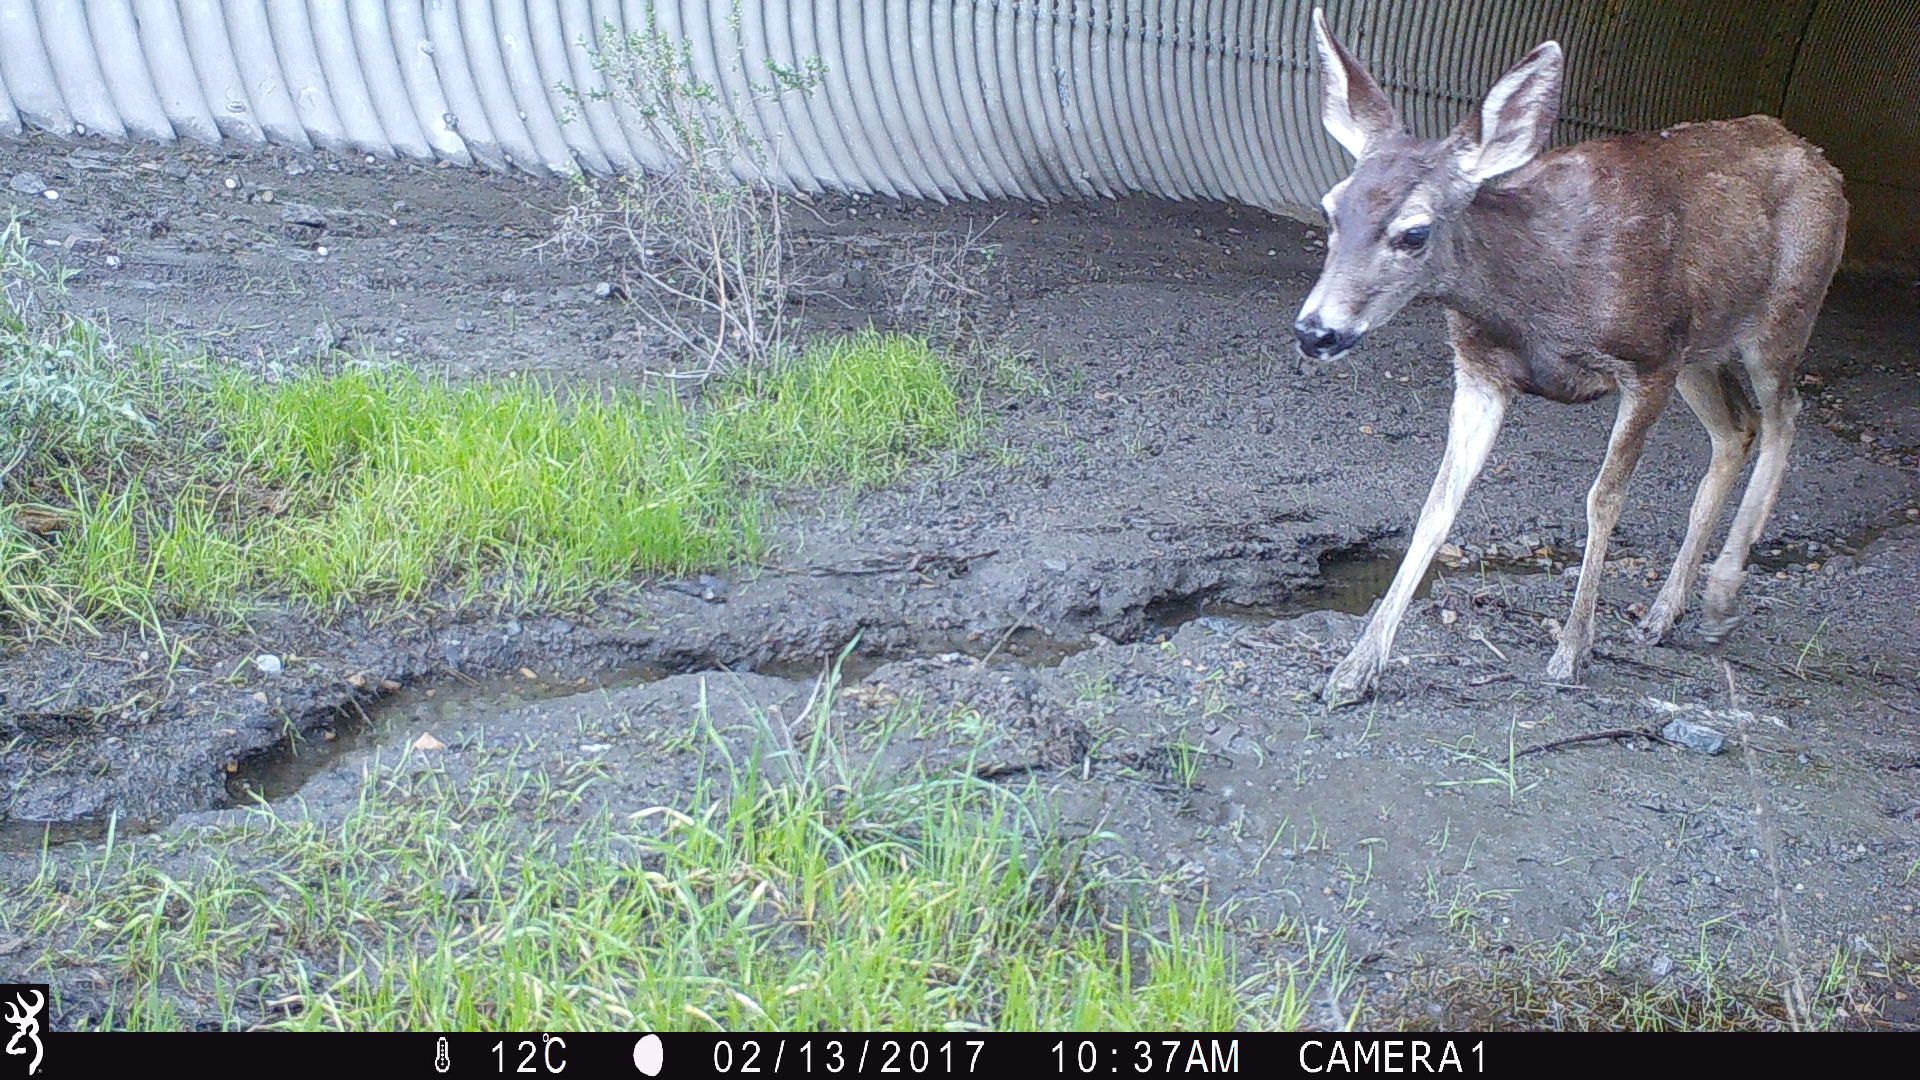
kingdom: Animalia
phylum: Chordata
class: Mammalia
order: Artiodactyla
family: Cervidae
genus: Odocoileus
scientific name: Odocoileus hemionus
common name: Mule deer
